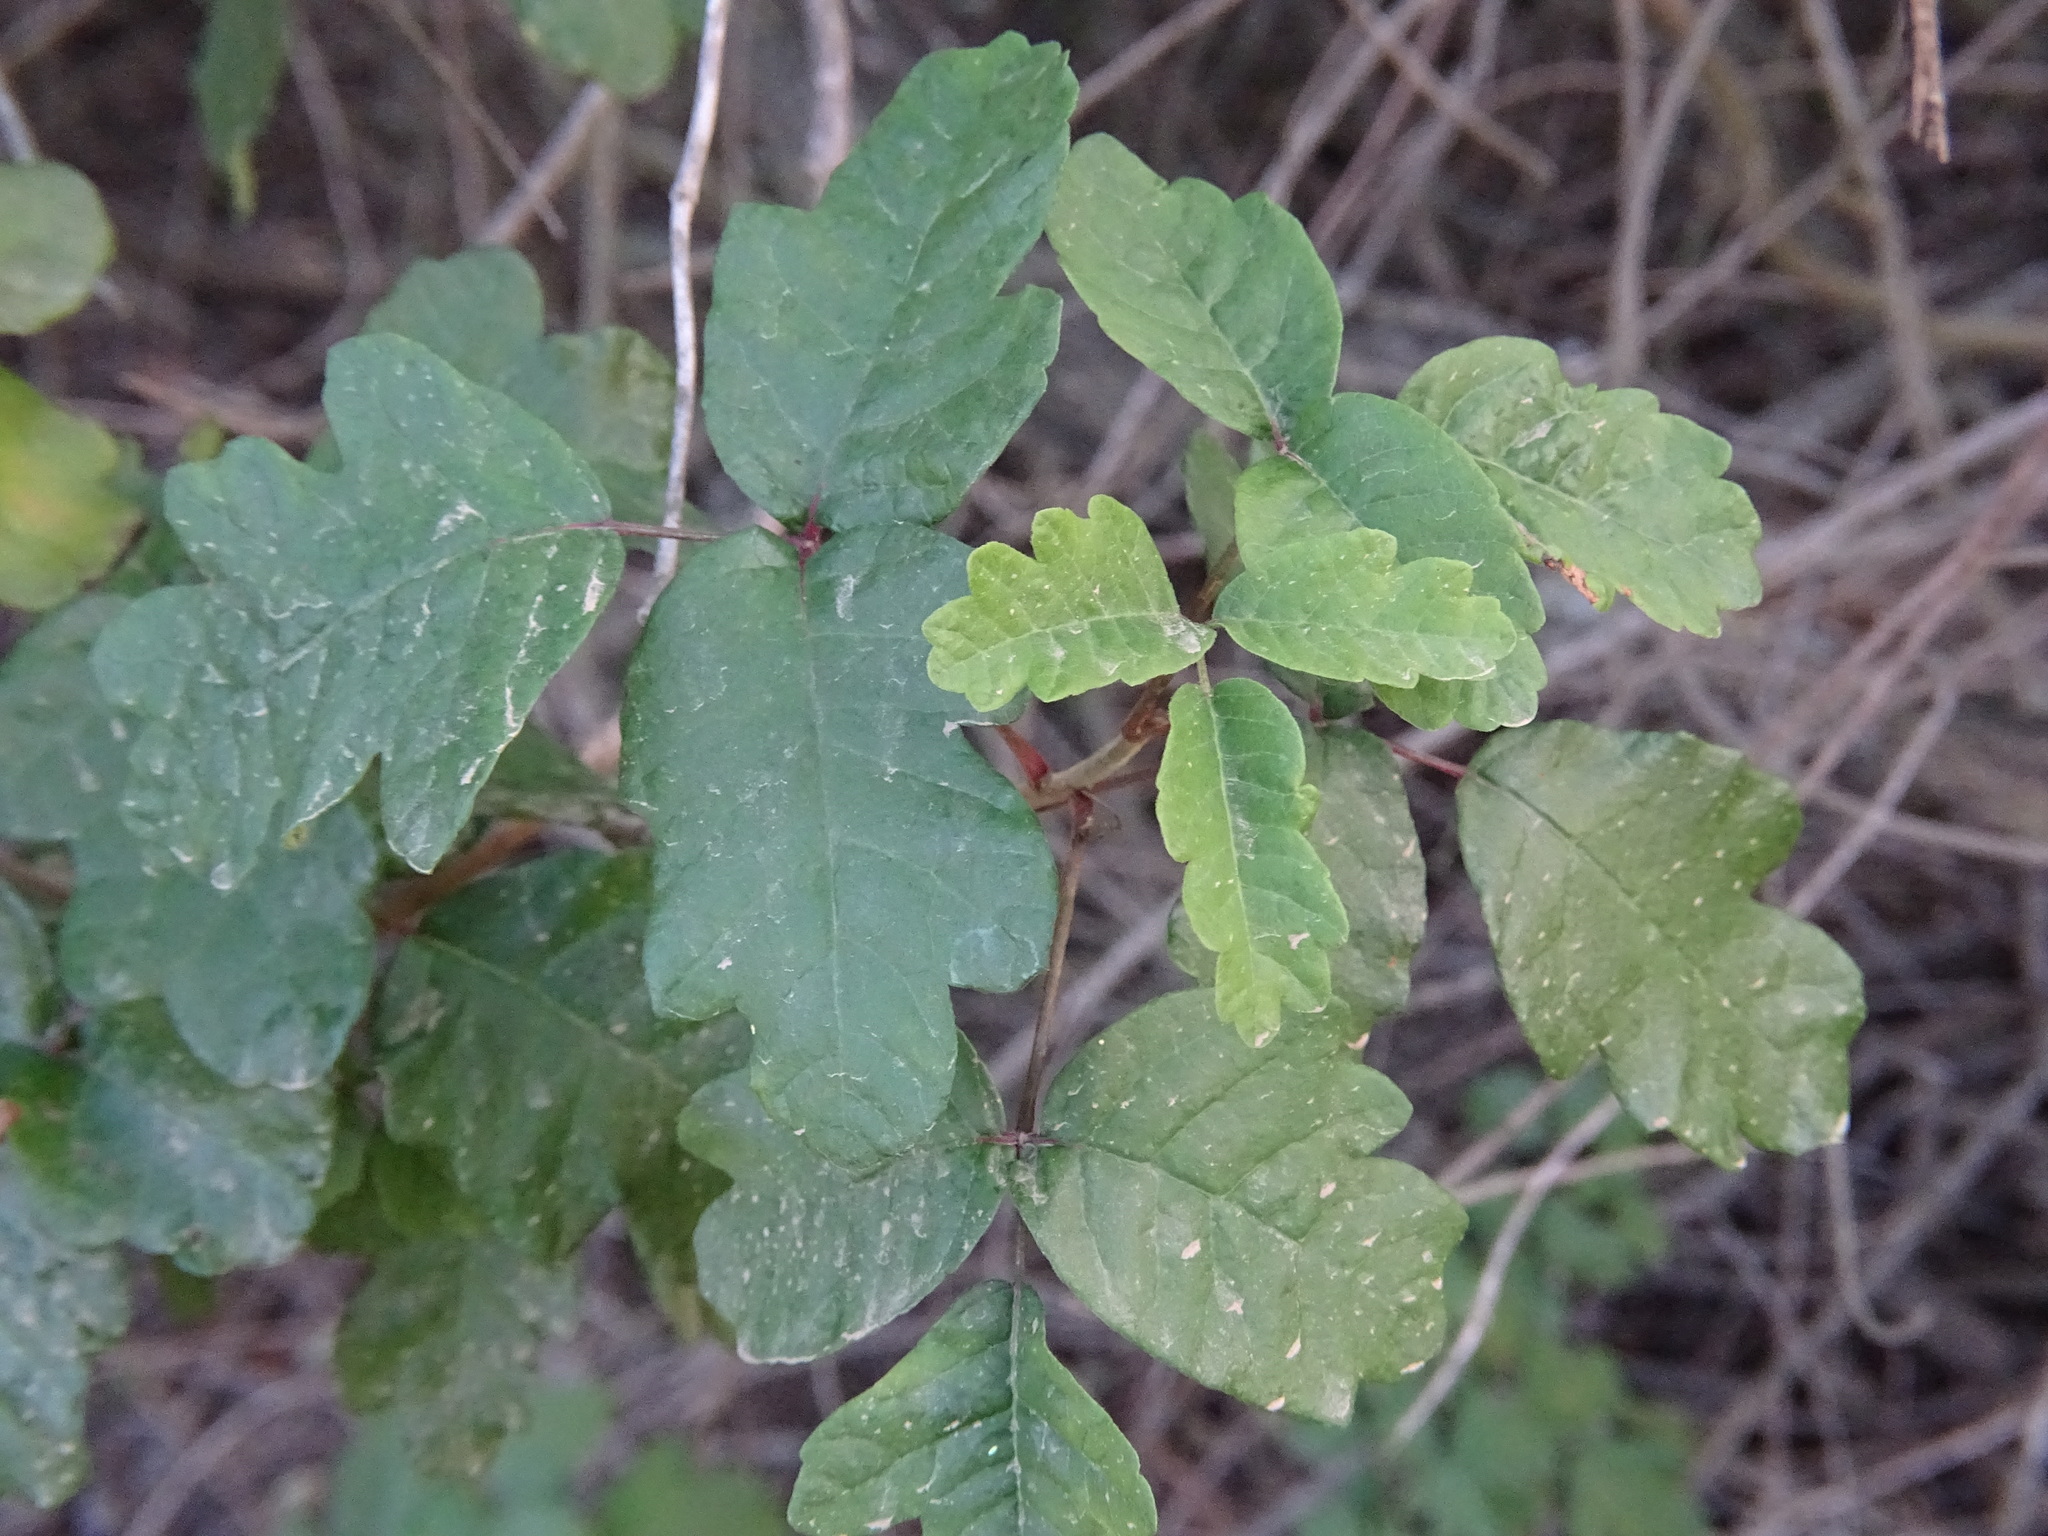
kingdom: Plantae
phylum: Tracheophyta
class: Magnoliopsida
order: Sapindales
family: Anacardiaceae
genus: Toxicodendron
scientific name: Toxicodendron diversilobum
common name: Pacific poison-oak
